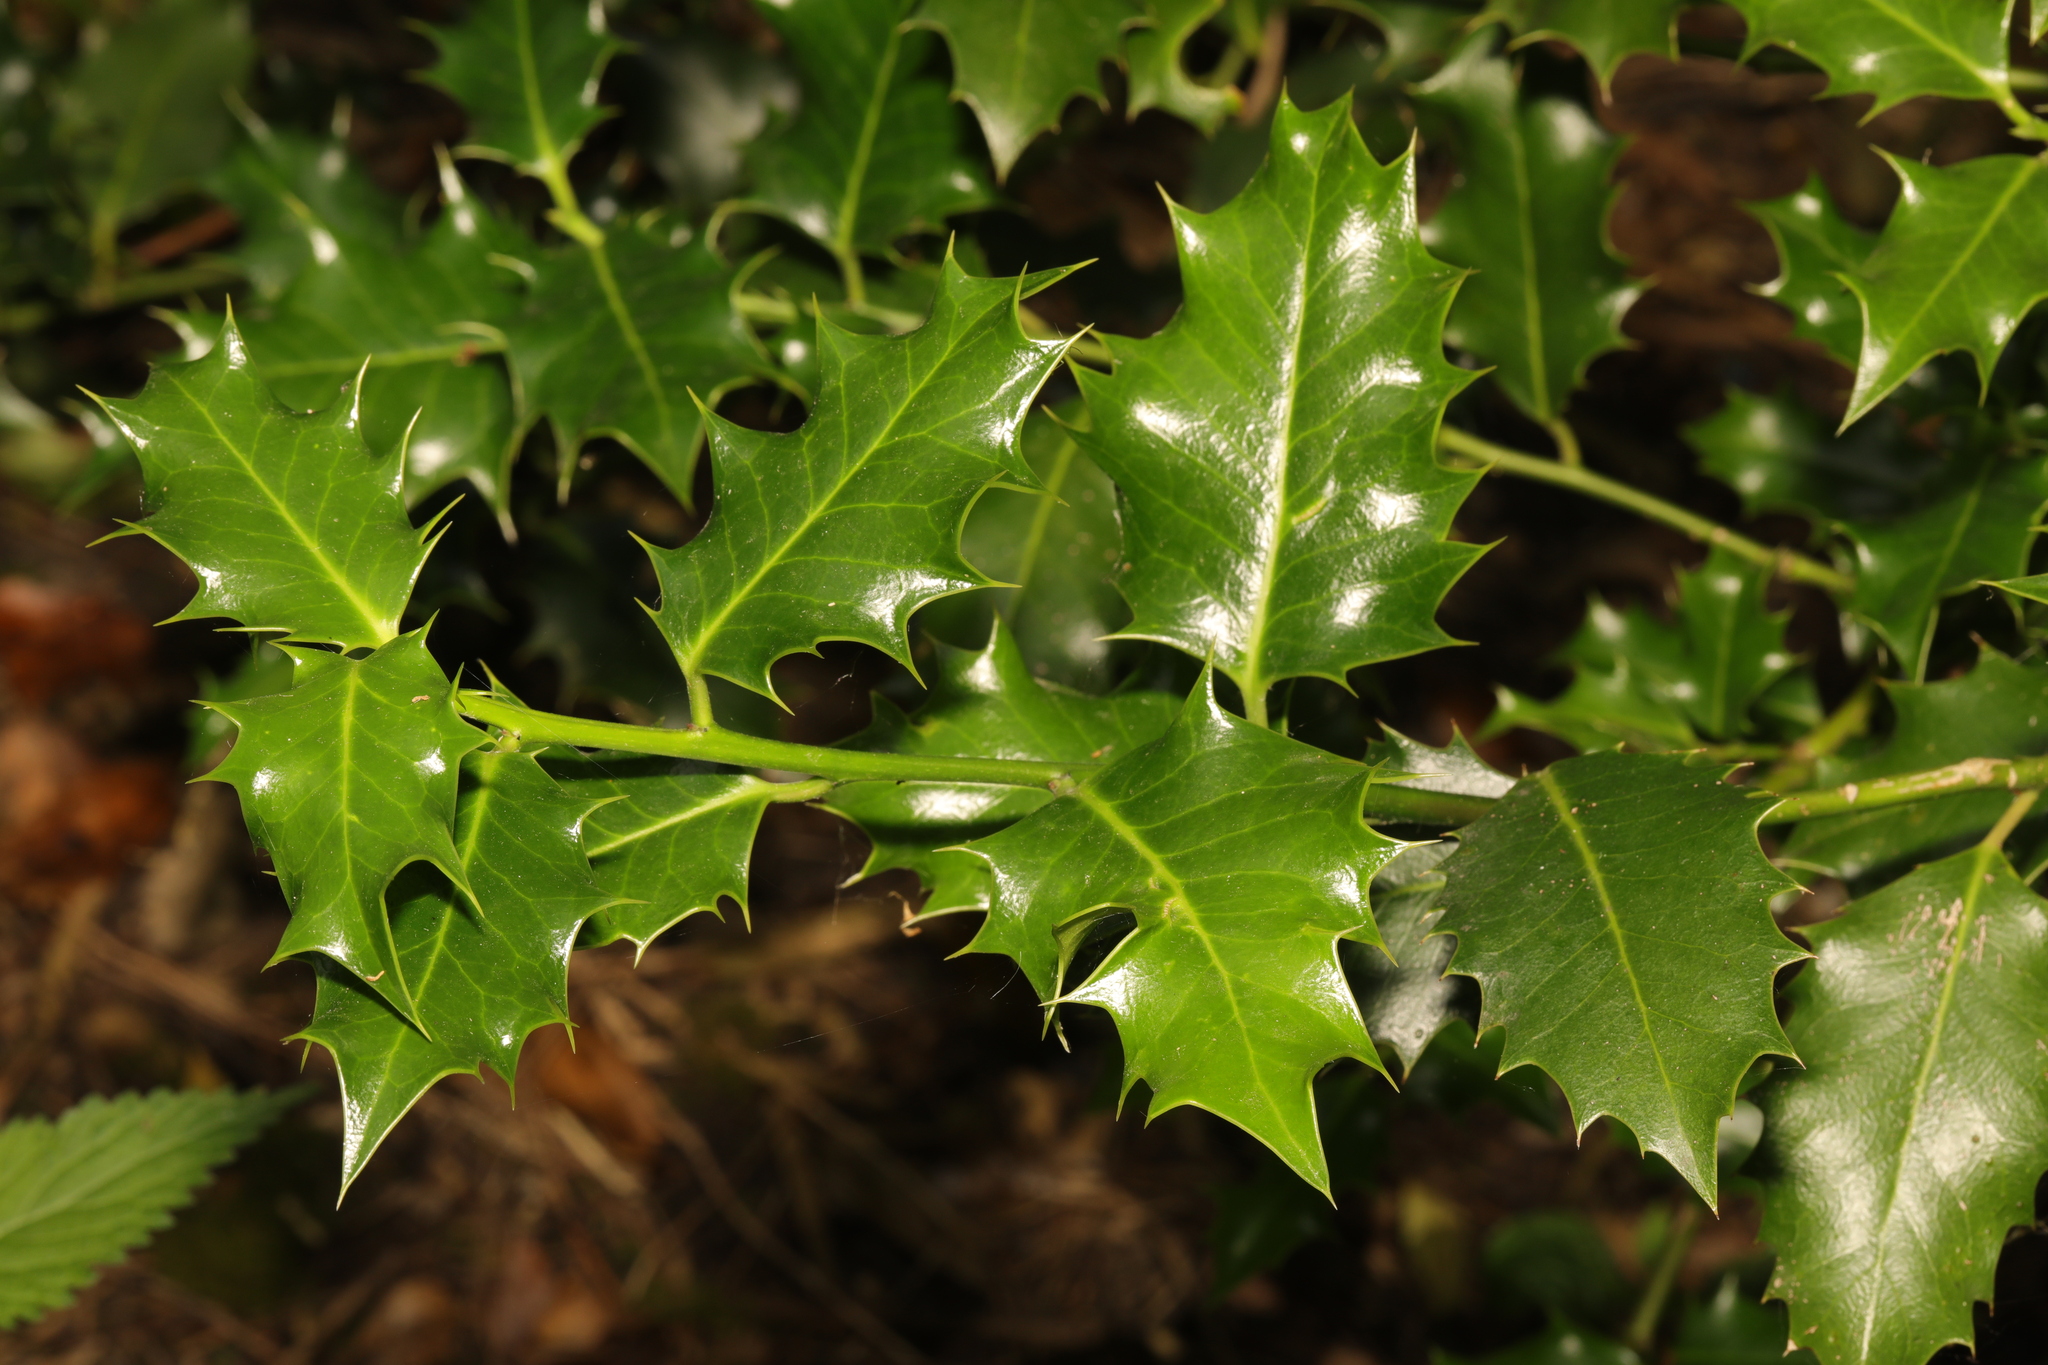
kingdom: Plantae
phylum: Tracheophyta
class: Magnoliopsida
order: Aquifoliales
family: Aquifoliaceae
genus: Ilex
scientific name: Ilex aquifolium
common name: English holly
